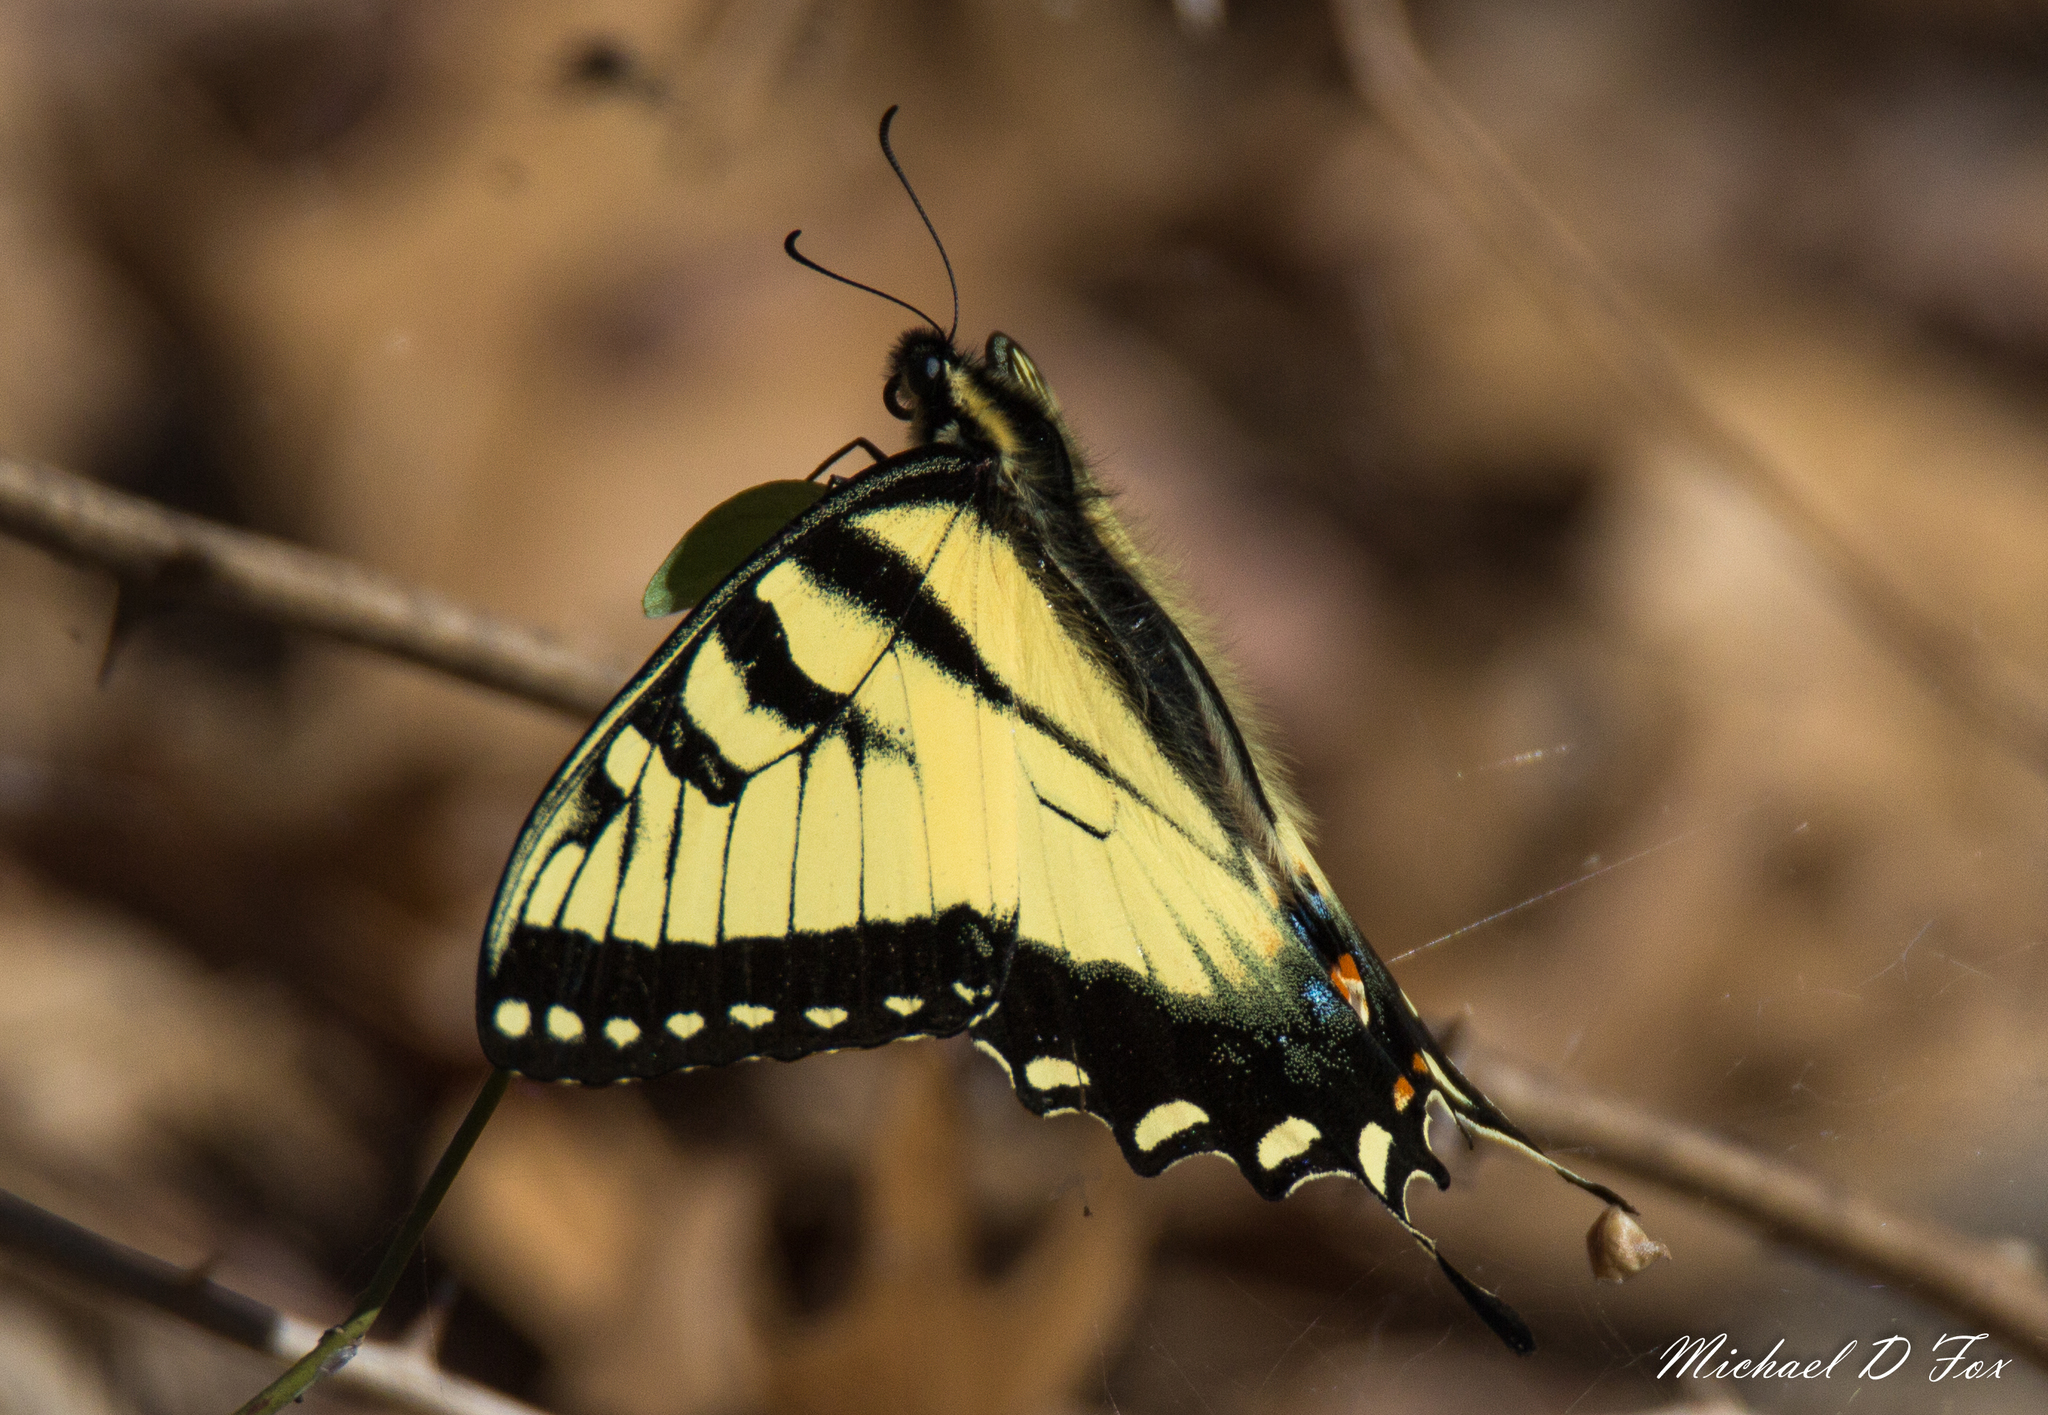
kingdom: Animalia
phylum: Arthropoda
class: Insecta
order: Lepidoptera
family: Papilionidae
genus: Papilio
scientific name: Papilio glaucus
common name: Tiger swallowtail
